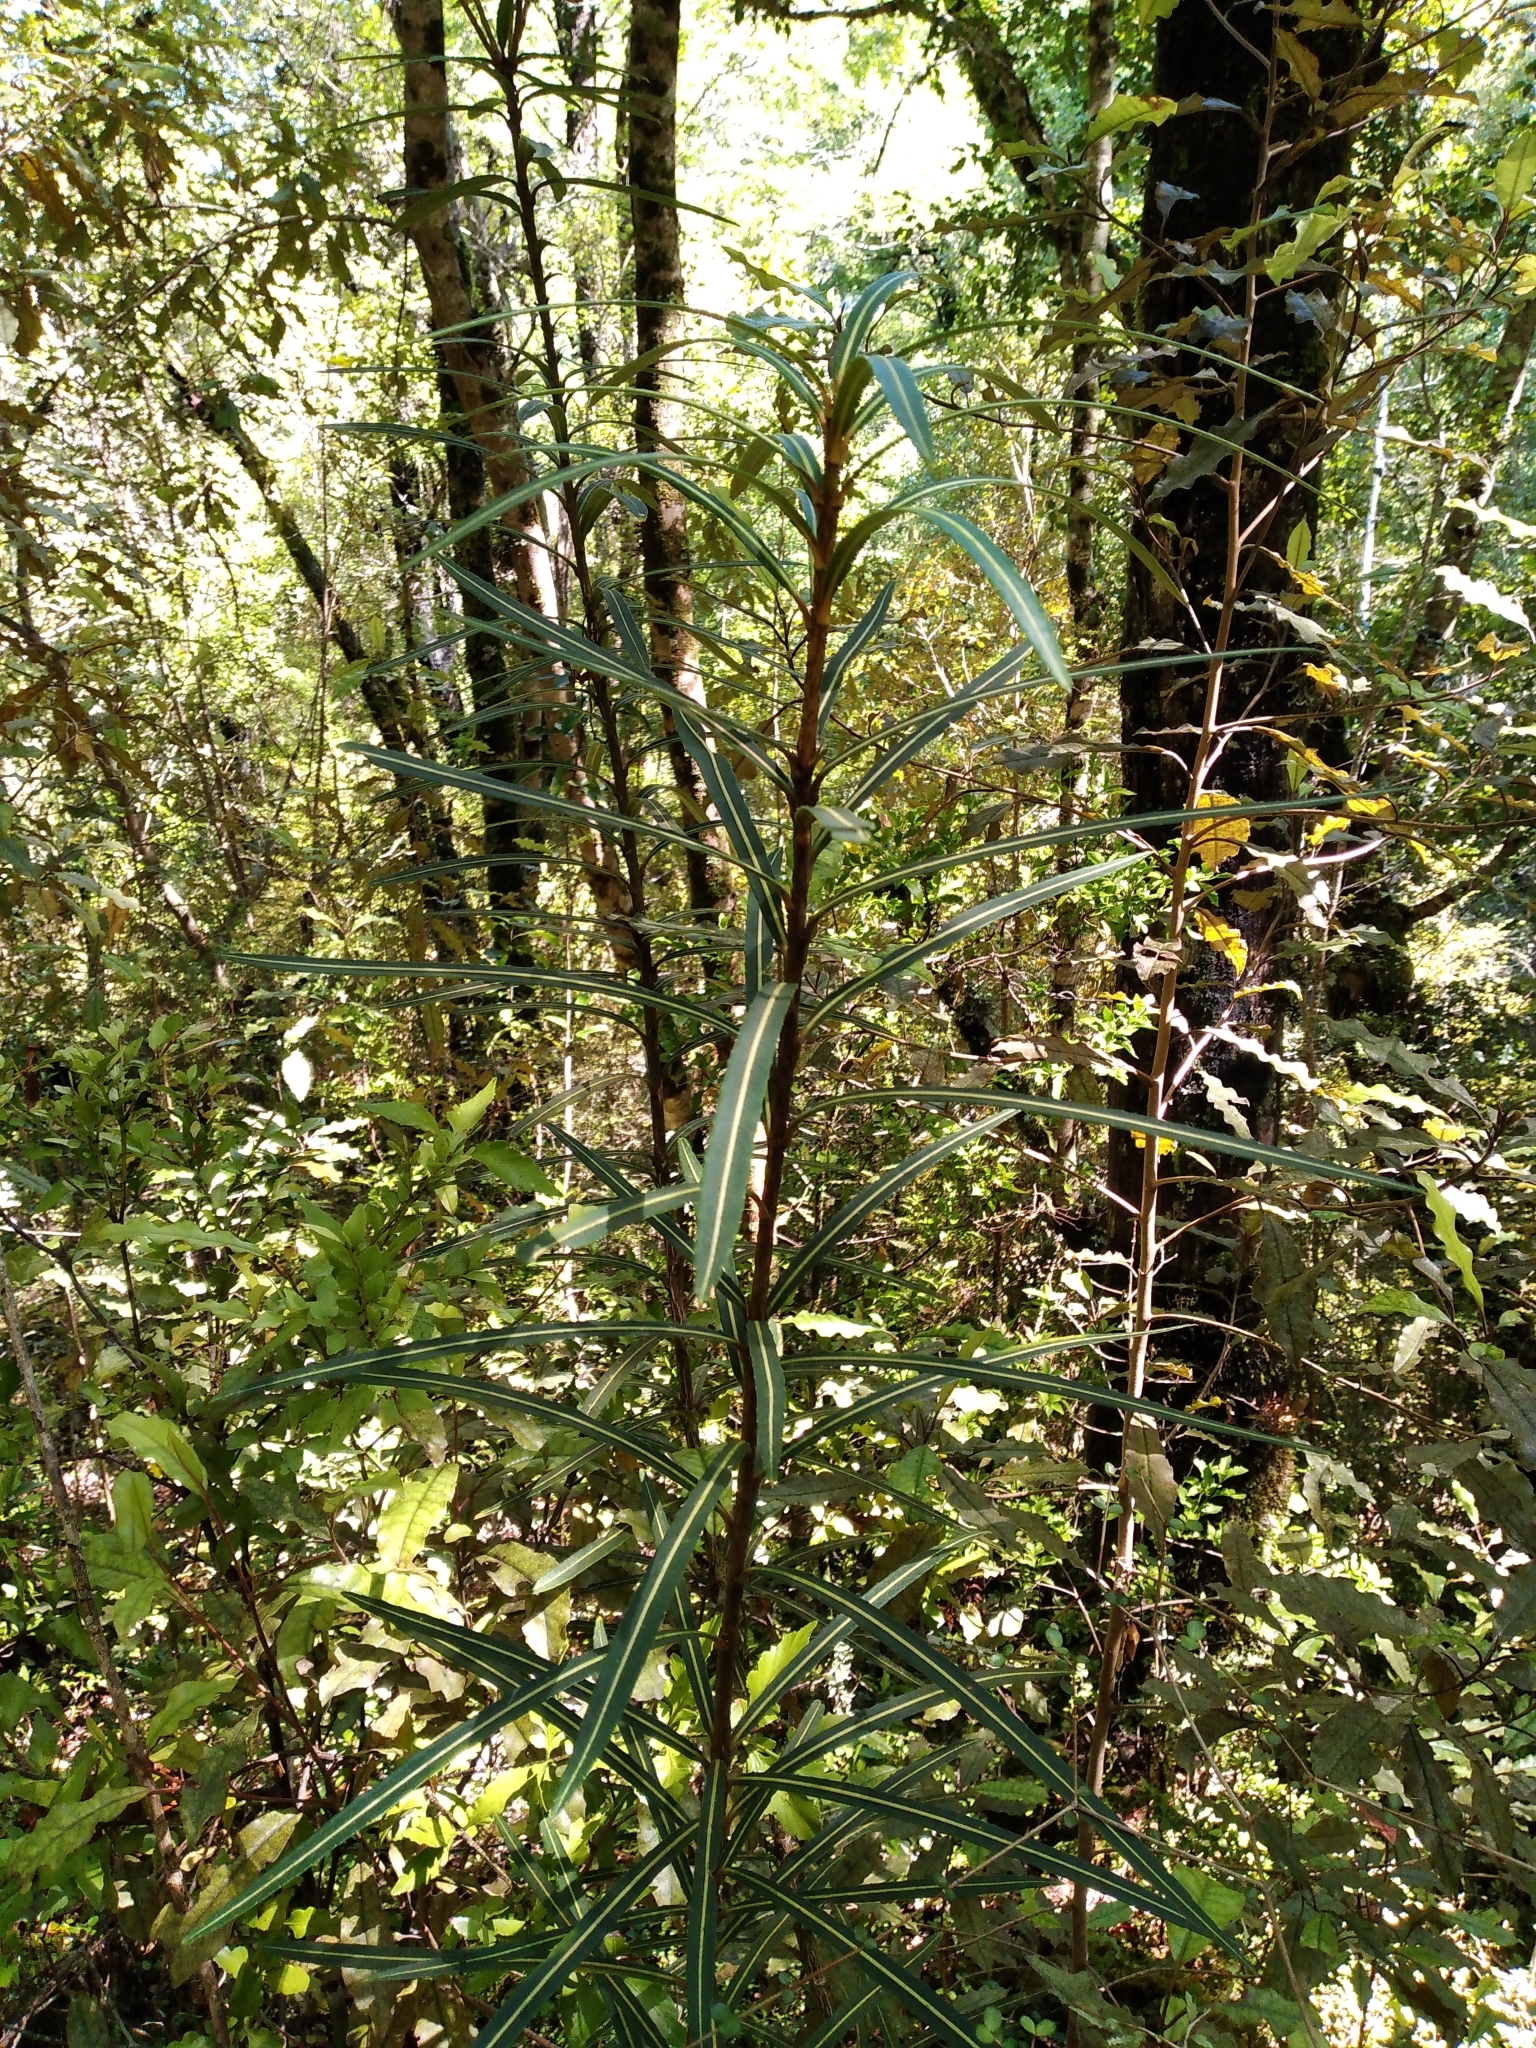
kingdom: Plantae
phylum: Tracheophyta
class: Magnoliopsida
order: Apiales
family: Araliaceae
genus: Pseudopanax
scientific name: Pseudopanax linearis
